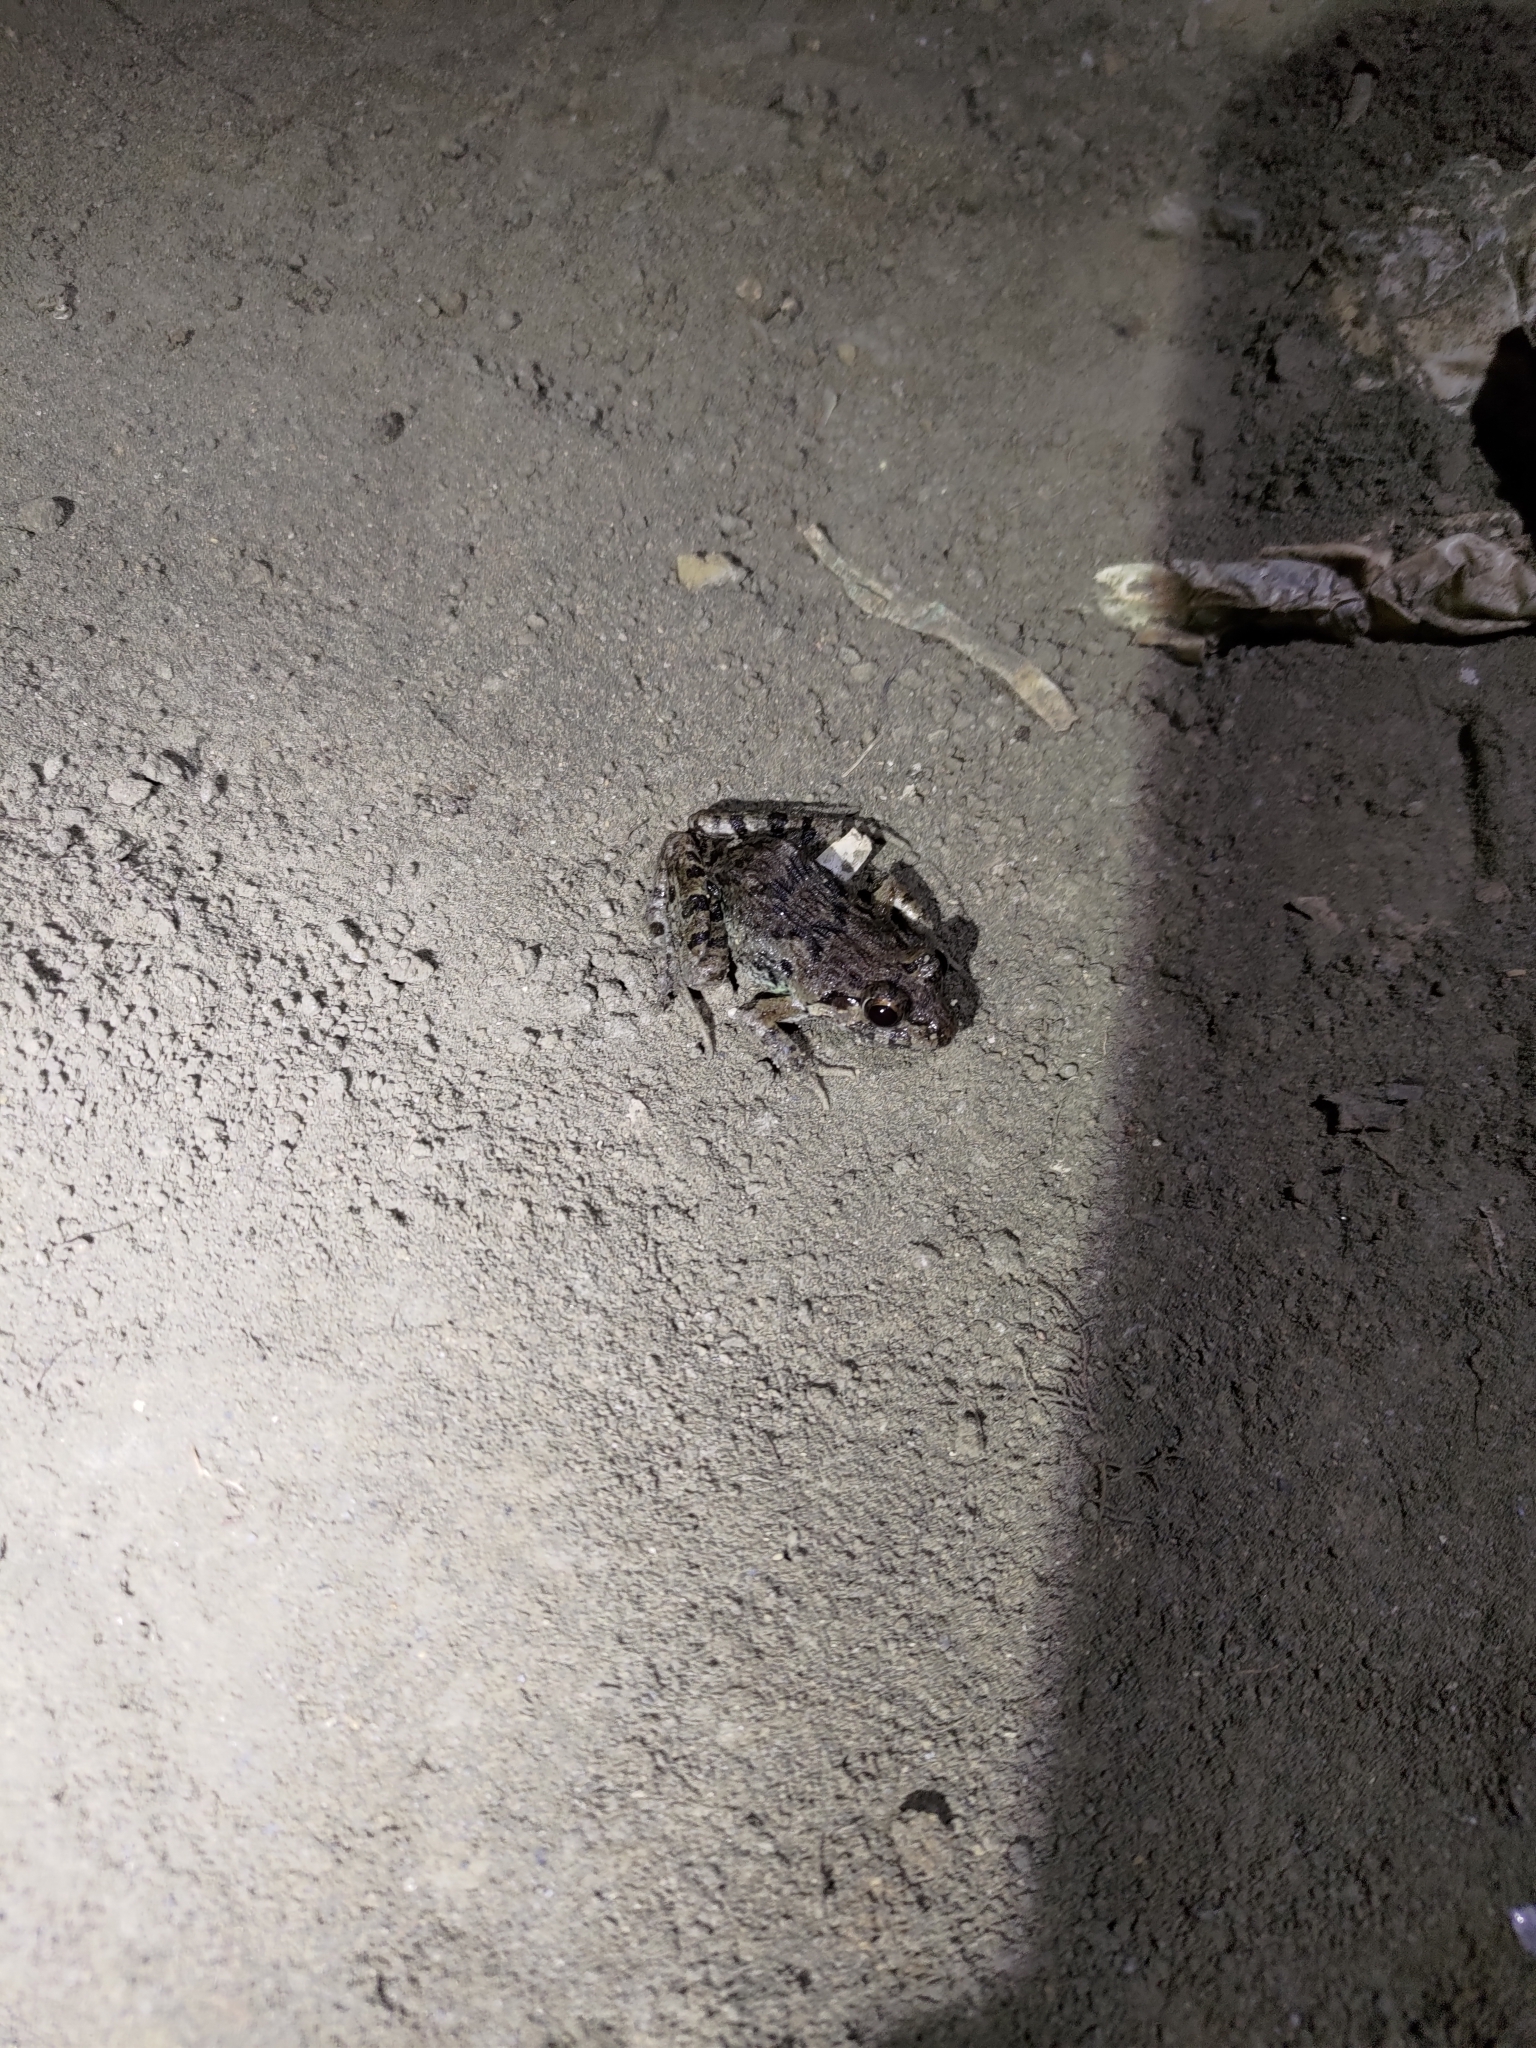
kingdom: Animalia
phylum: Chordata
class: Amphibia
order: Anura
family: Dicroglossidae
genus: Fejervarya
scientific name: Fejervarya limnocharis
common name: Asian grass frog/common pond frog/field frog/grass frog/indian rice frog
